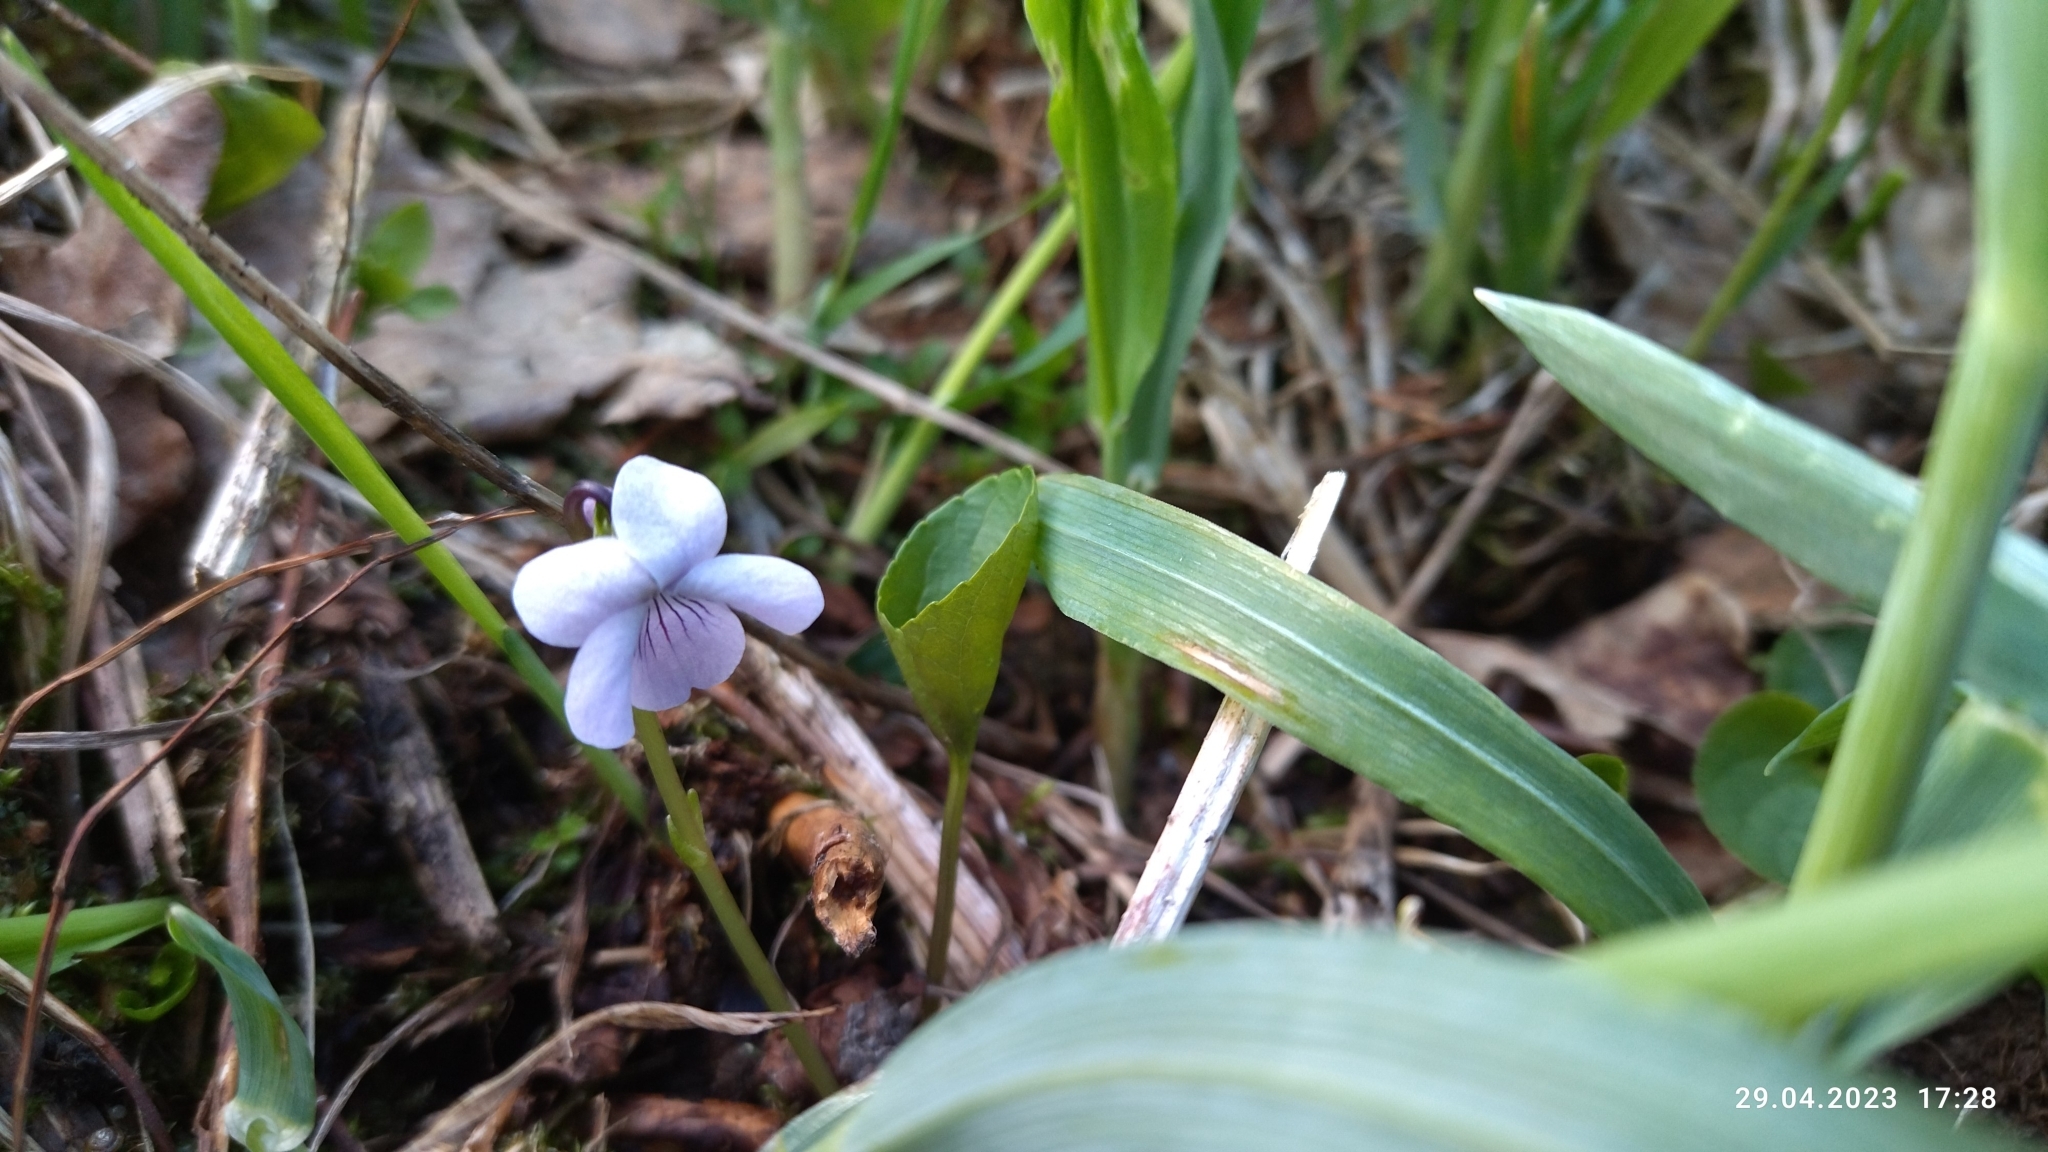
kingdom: Plantae
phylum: Tracheophyta
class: Magnoliopsida
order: Malpighiales
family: Violaceae
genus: Viola
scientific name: Viola palustris
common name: Marsh violet
